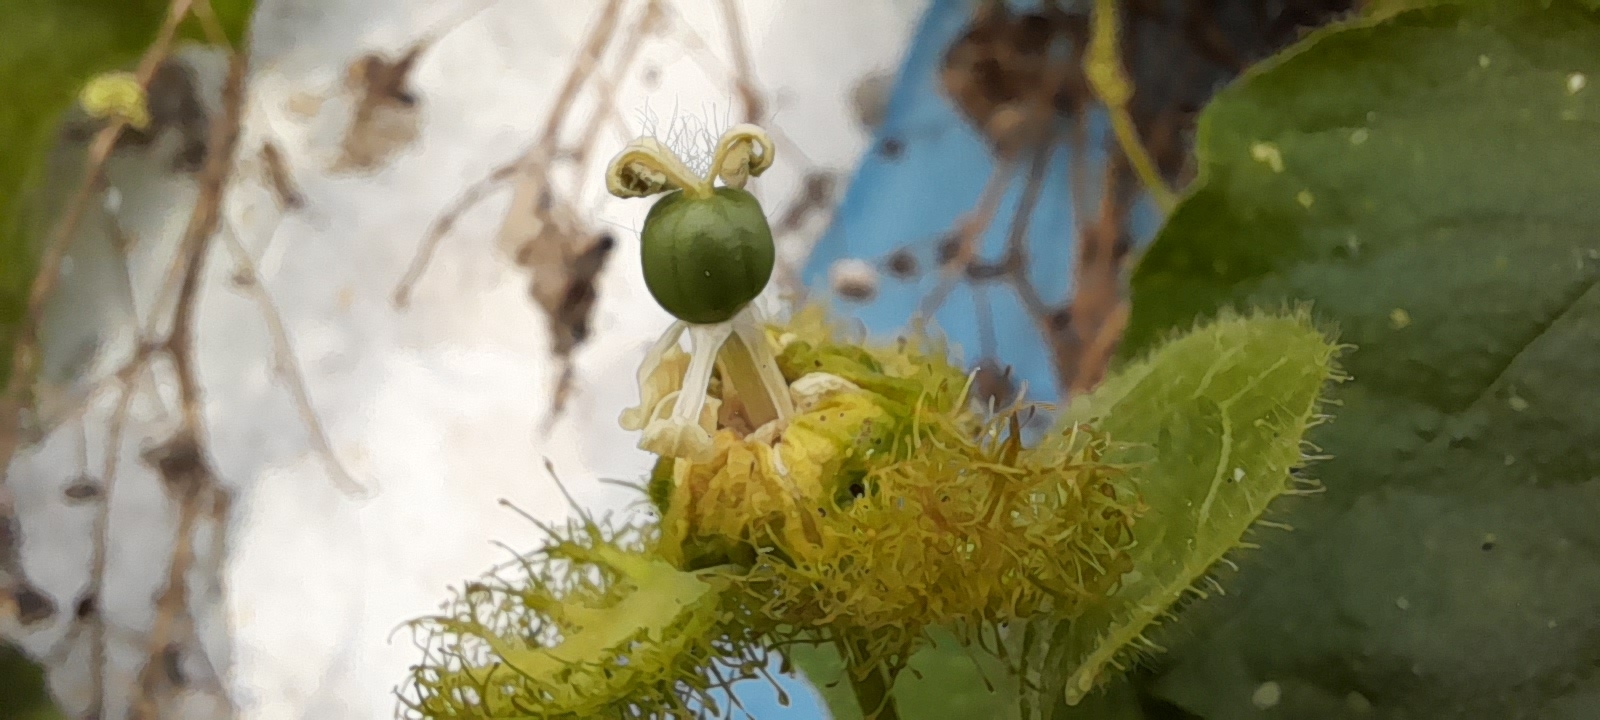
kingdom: Plantae
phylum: Tracheophyta
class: Magnoliopsida
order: Malpighiales
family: Passifloraceae
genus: Passiflora
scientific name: Passiflora foetida
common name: Fetid passionflower
